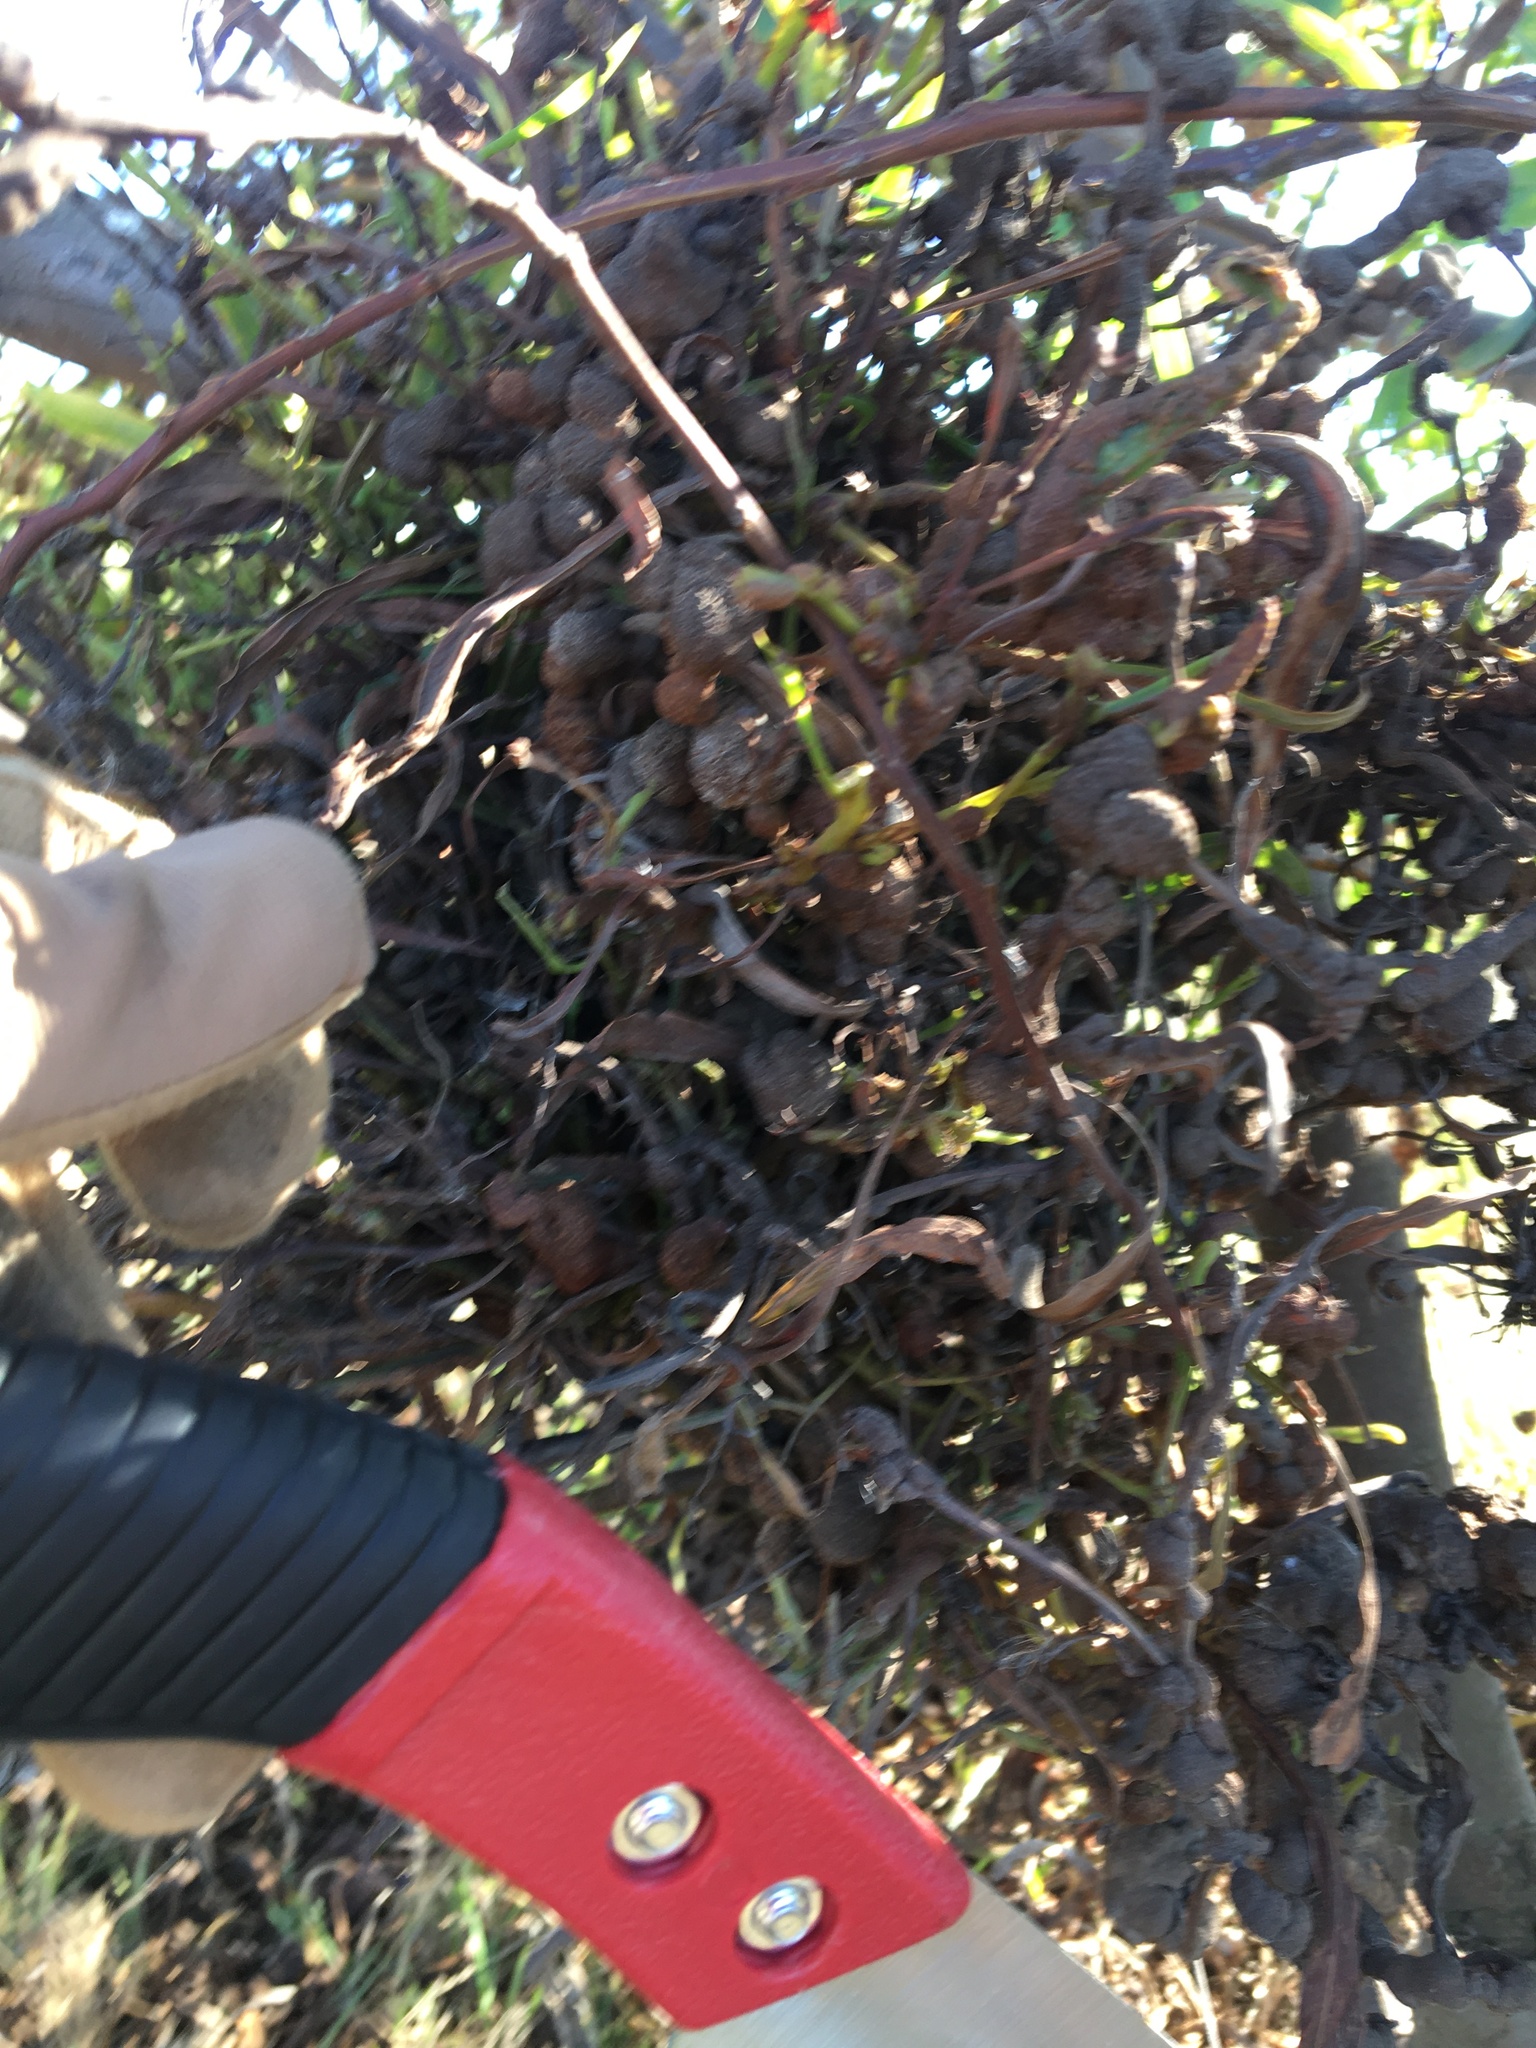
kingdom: Fungi
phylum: Basidiomycota
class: Pucciniomycetes
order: Pucciniales
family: Uromycladiaceae
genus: Uromycladium
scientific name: Uromycladium morrisii
